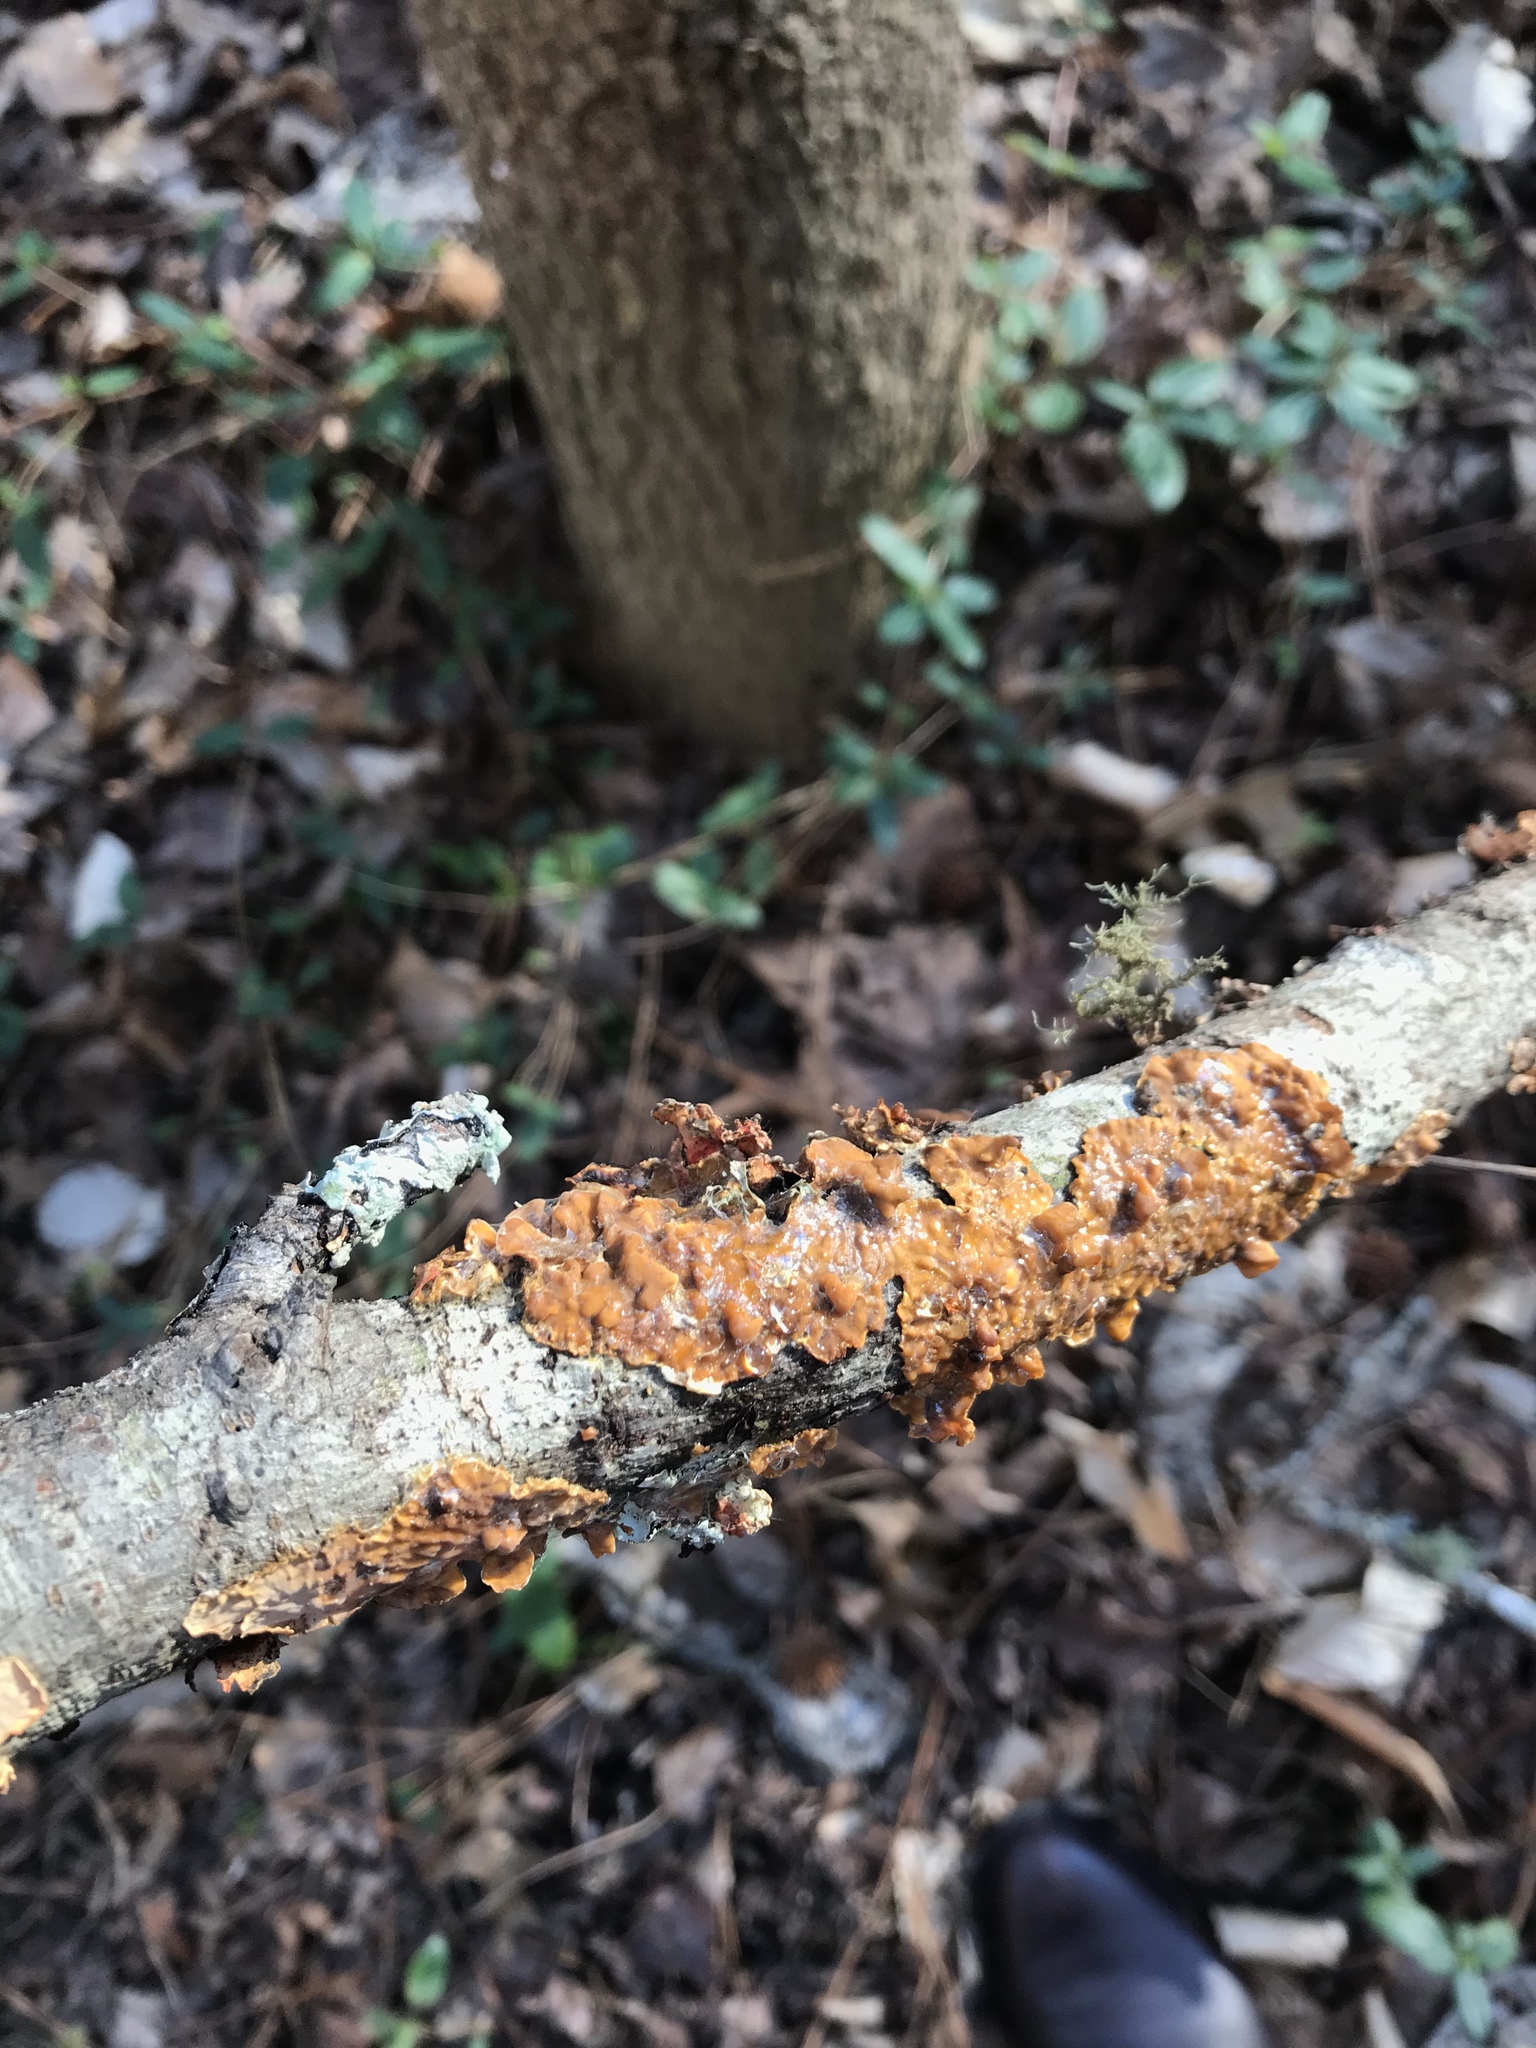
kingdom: Fungi
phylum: Basidiomycota
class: Agaricomycetes
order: Russulales
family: Stereaceae
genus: Stereum
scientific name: Stereum complicatum
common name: Crowded parchment
